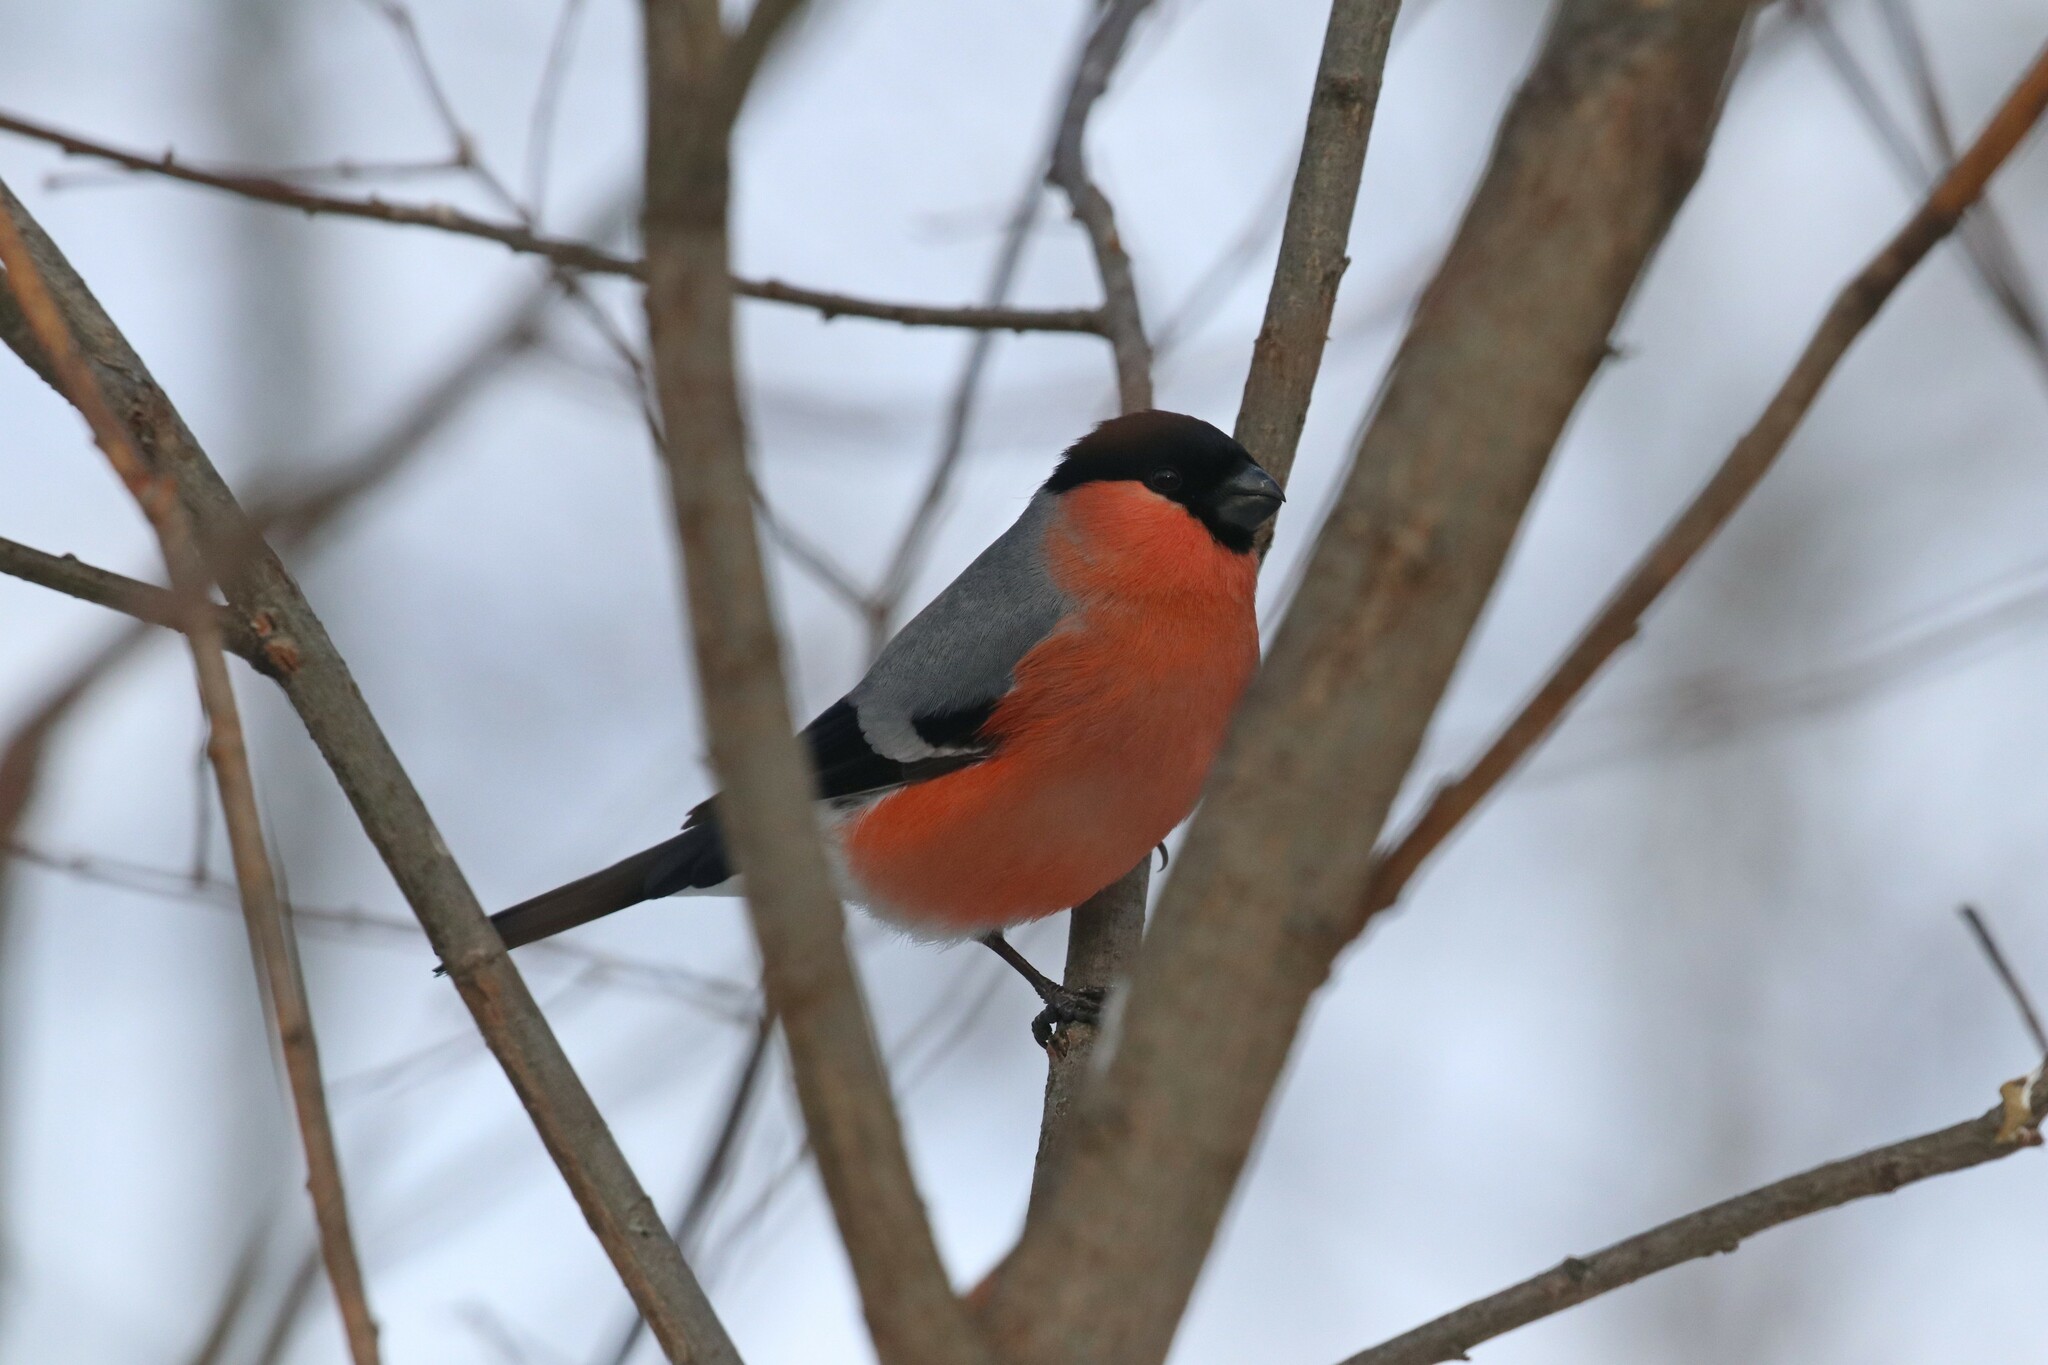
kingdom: Animalia
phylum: Chordata
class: Aves
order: Passeriformes
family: Fringillidae
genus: Pyrrhula
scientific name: Pyrrhula pyrrhula
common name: Eurasian bullfinch
